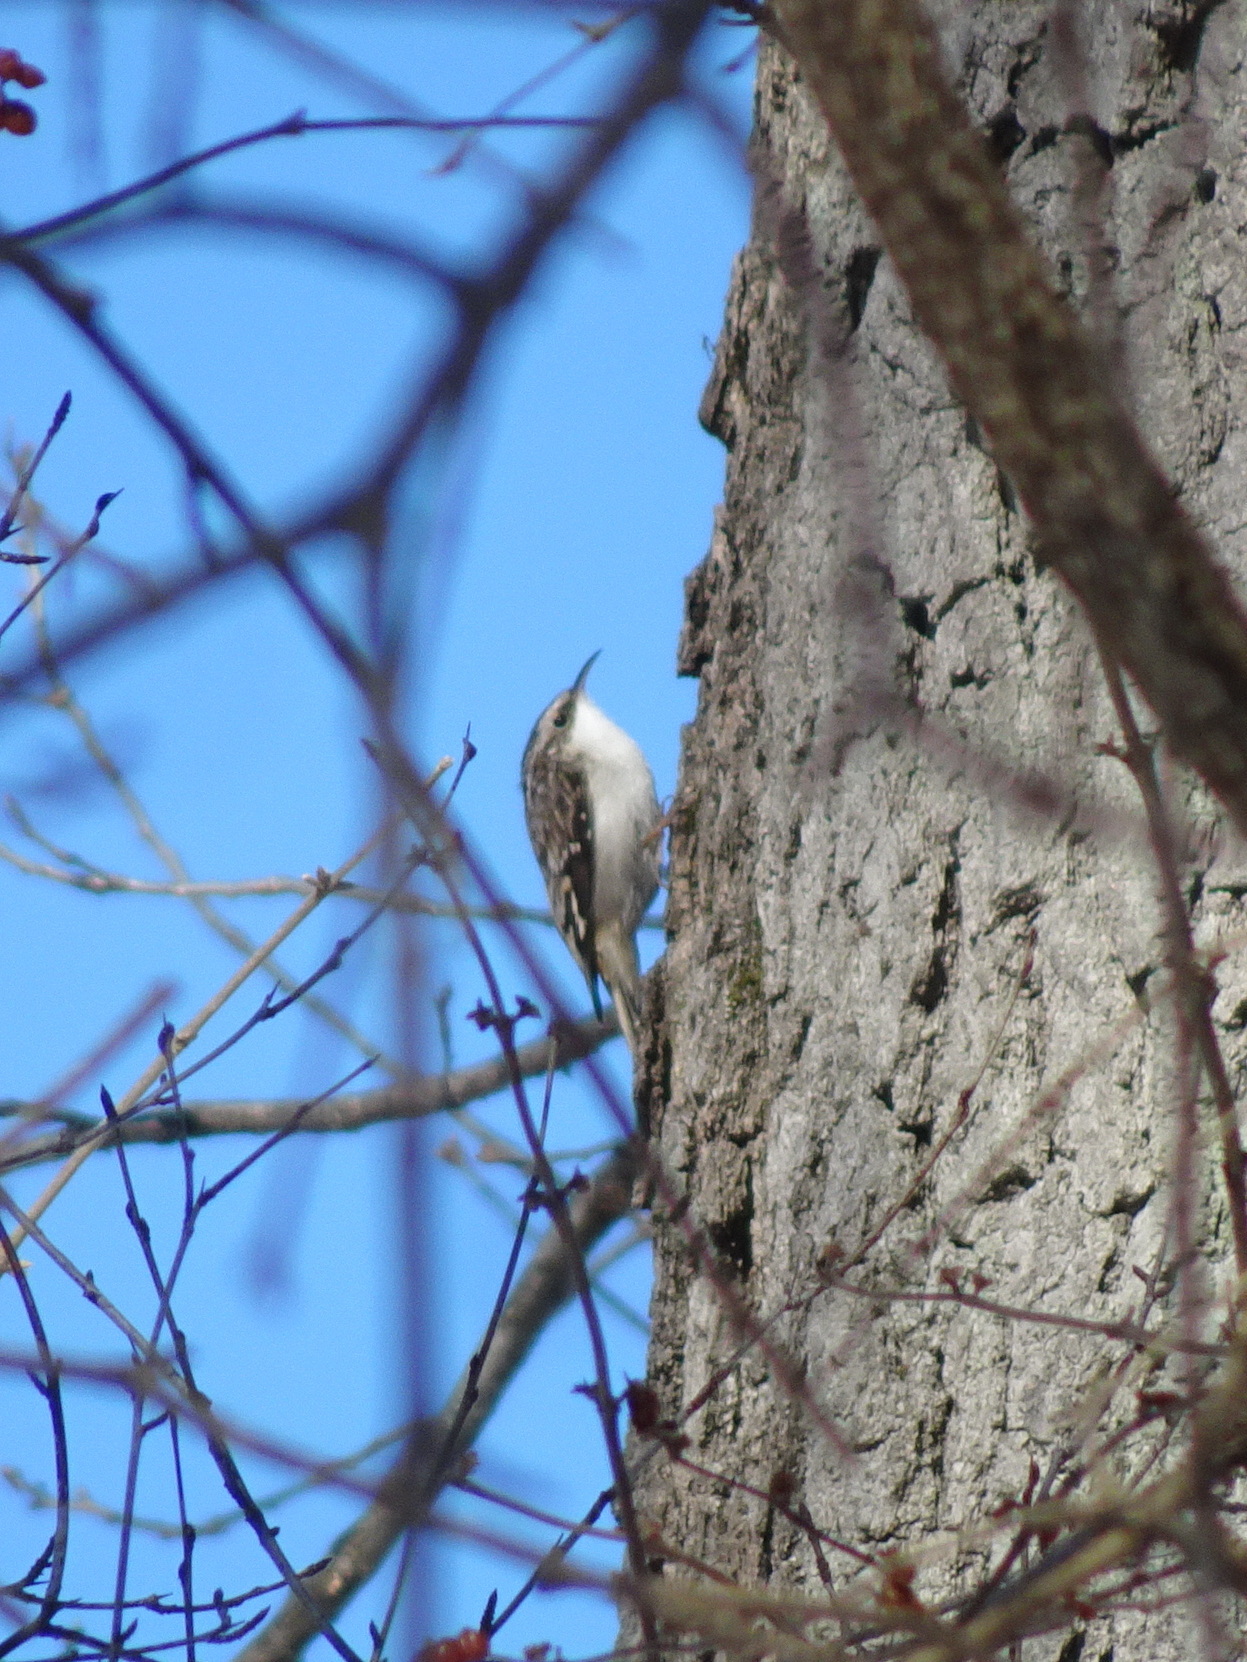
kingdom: Animalia
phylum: Chordata
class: Aves
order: Passeriformes
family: Certhiidae
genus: Certhia
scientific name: Certhia americana
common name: Brown creeper
